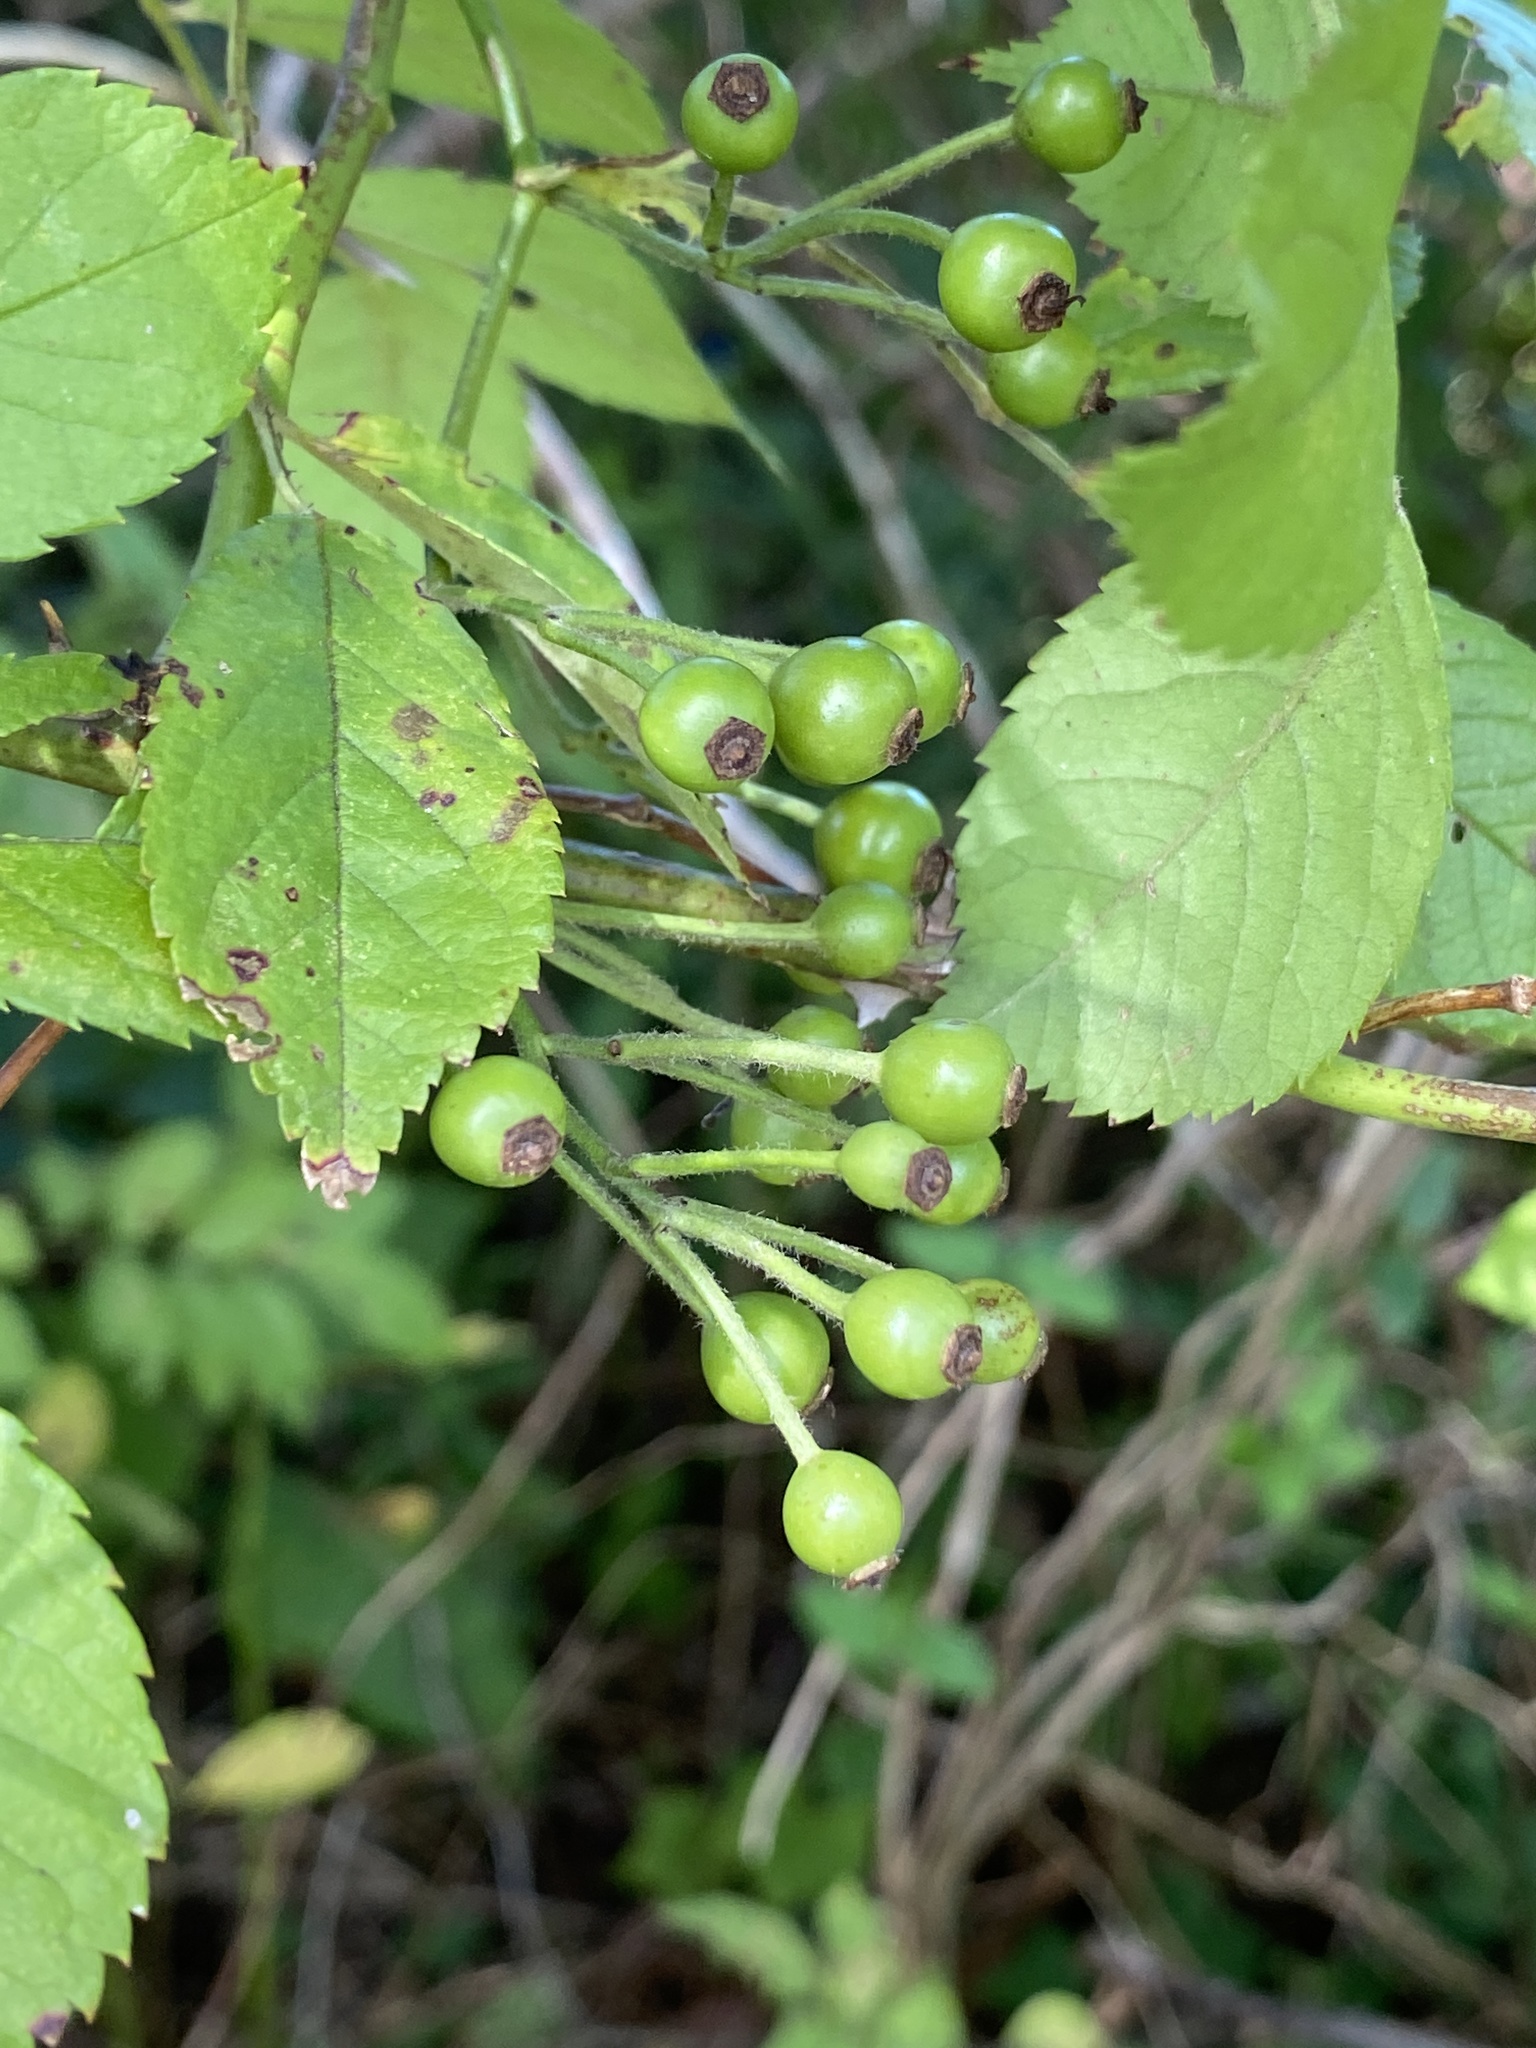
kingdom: Plantae
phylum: Tracheophyta
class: Magnoliopsida
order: Rosales
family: Rosaceae
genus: Rosa
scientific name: Rosa multiflora
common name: Multiflora rose
